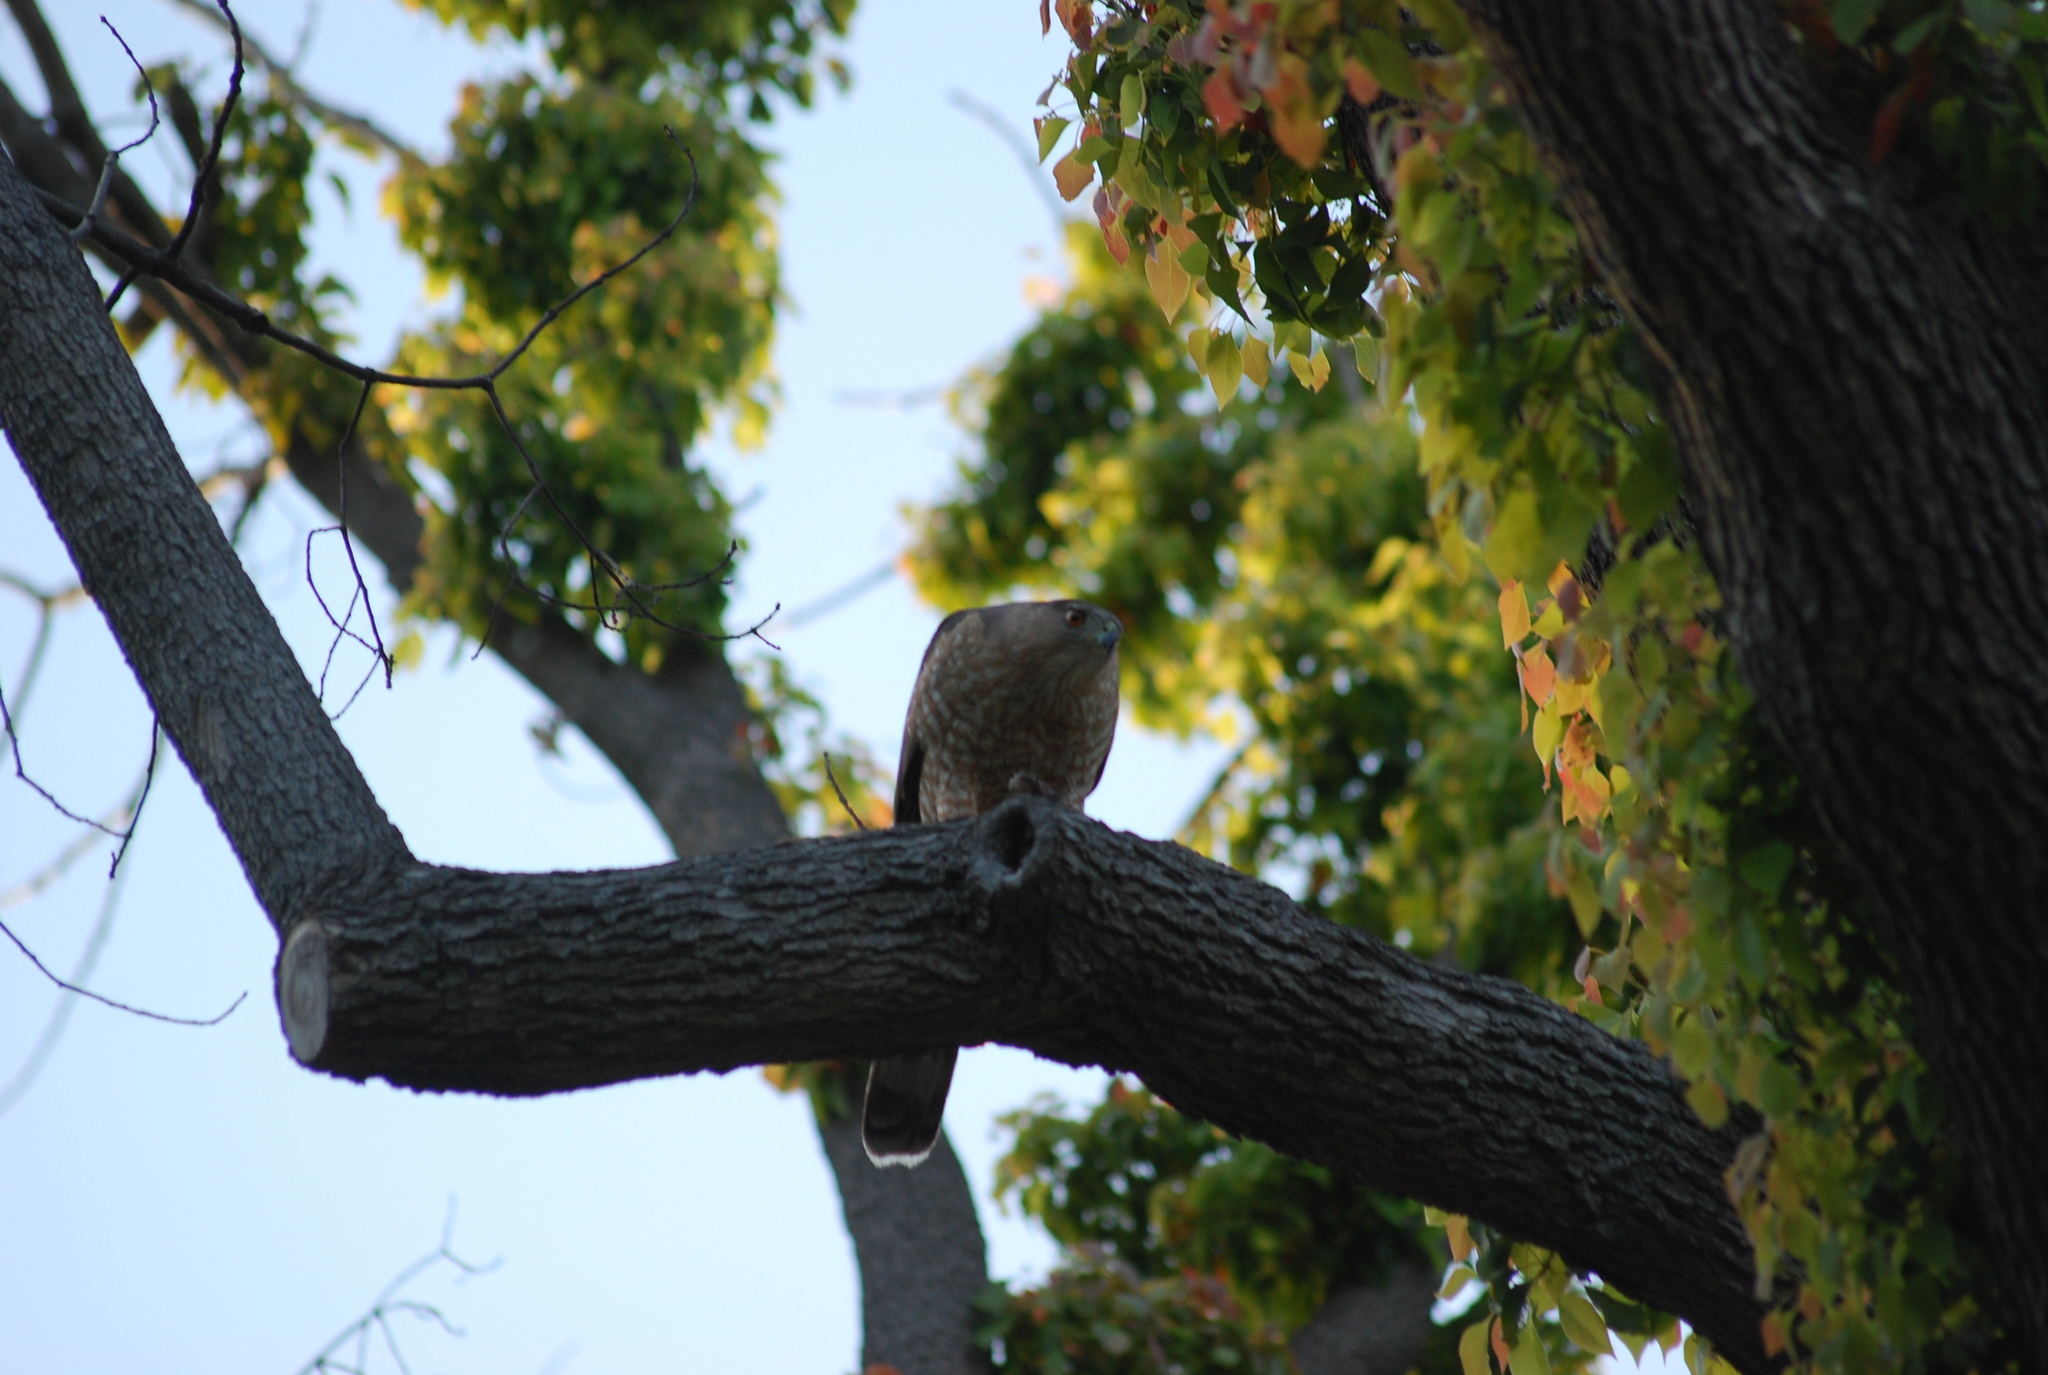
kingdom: Animalia
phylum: Chordata
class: Aves
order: Accipitriformes
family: Accipitridae
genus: Accipiter
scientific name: Accipiter cooperii
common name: Cooper's hawk
